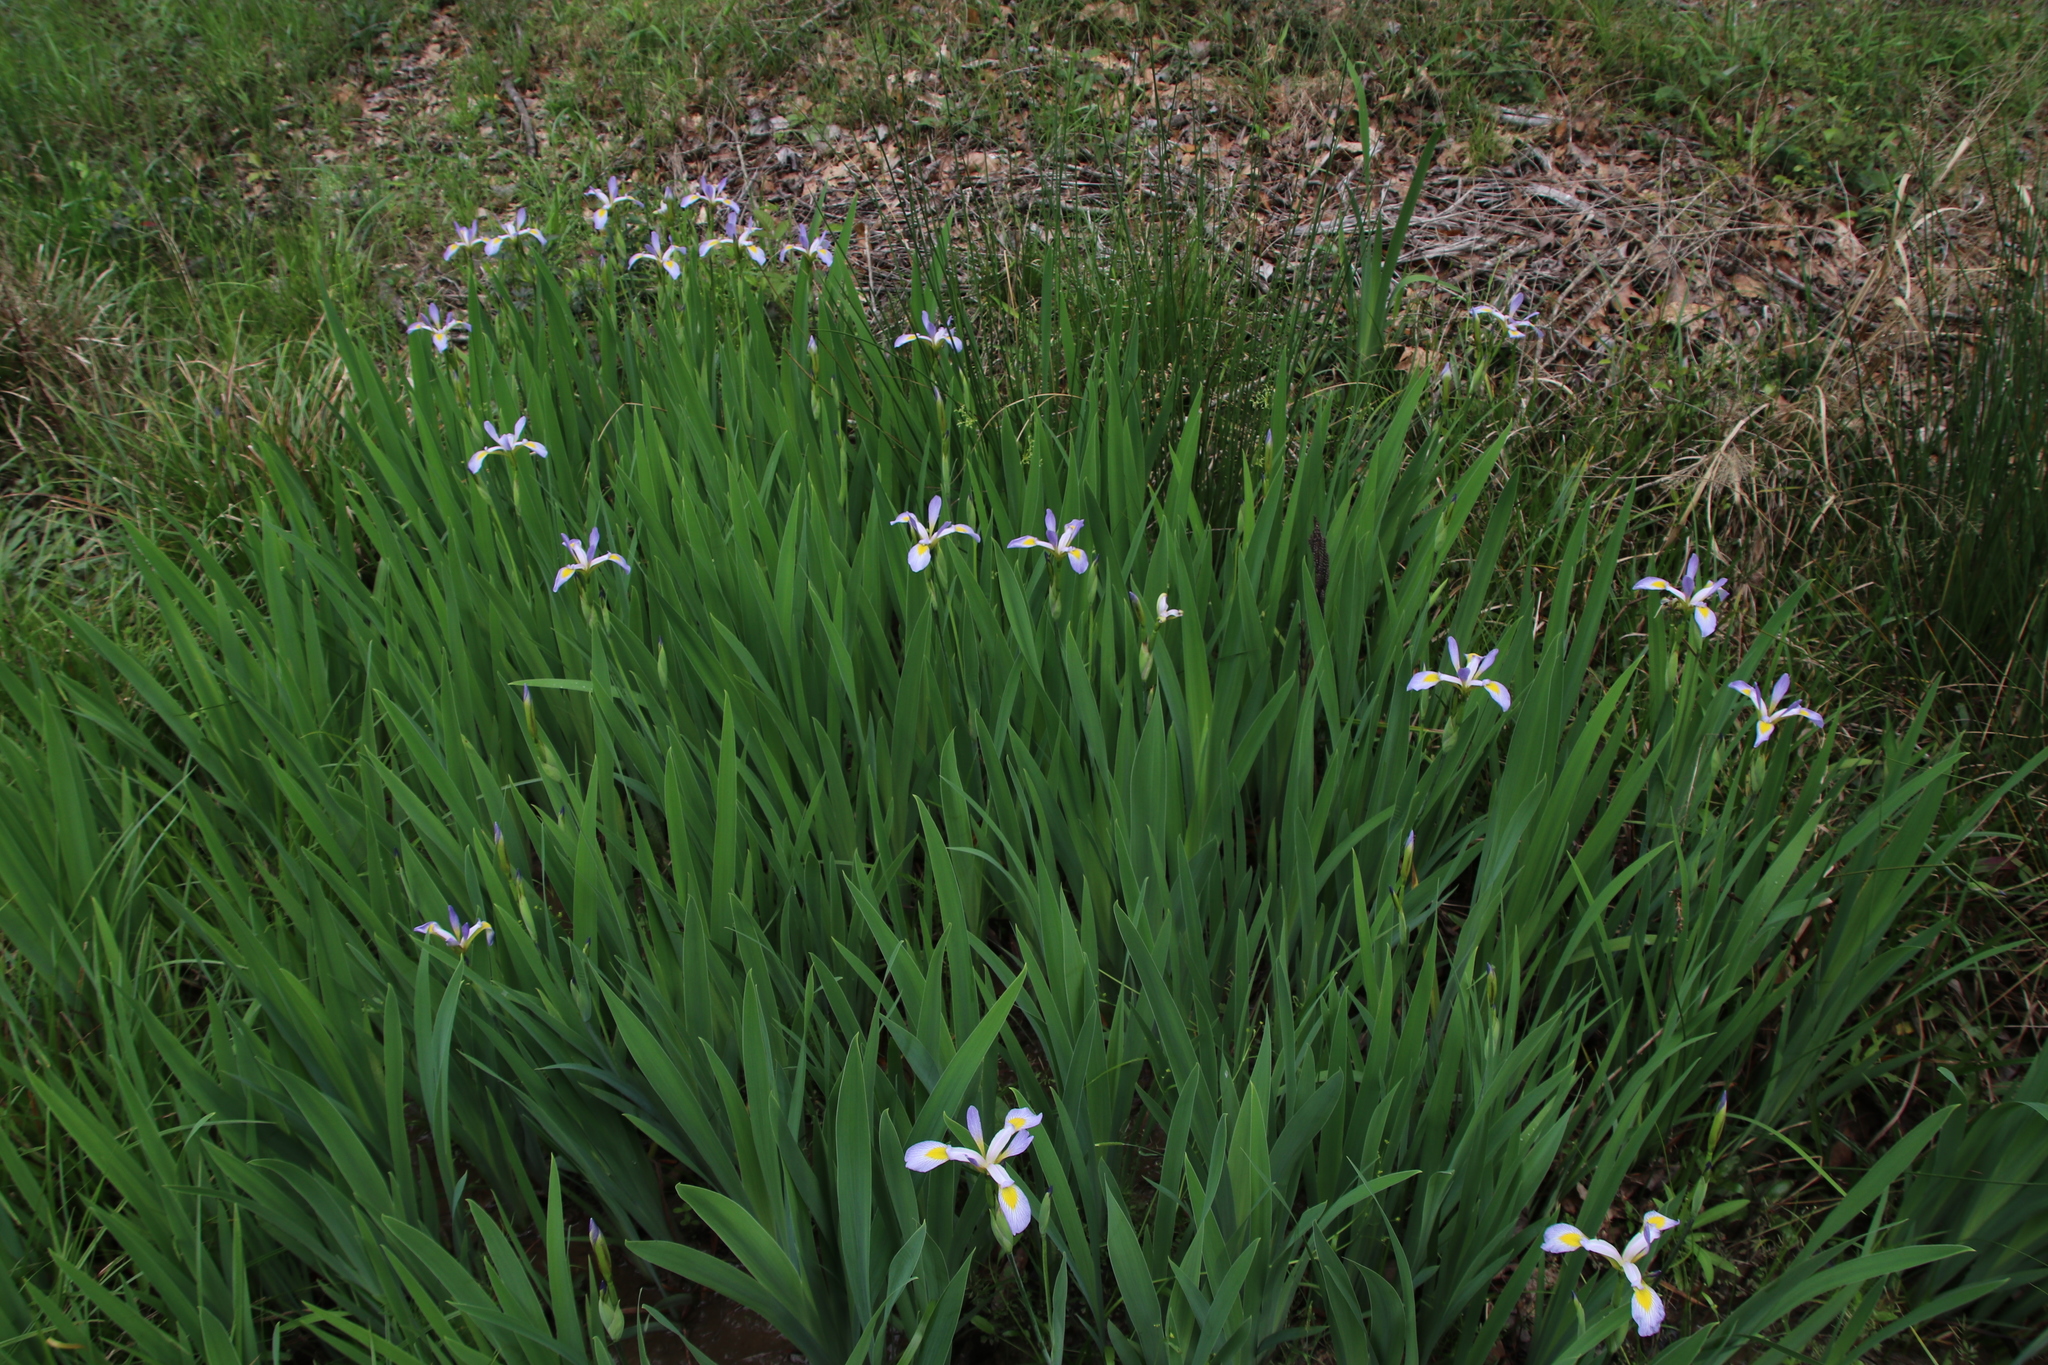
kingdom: Plantae
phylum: Tracheophyta
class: Liliopsida
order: Asparagales
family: Iridaceae
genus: Iris
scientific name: Iris virginica
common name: Southern blue flag
